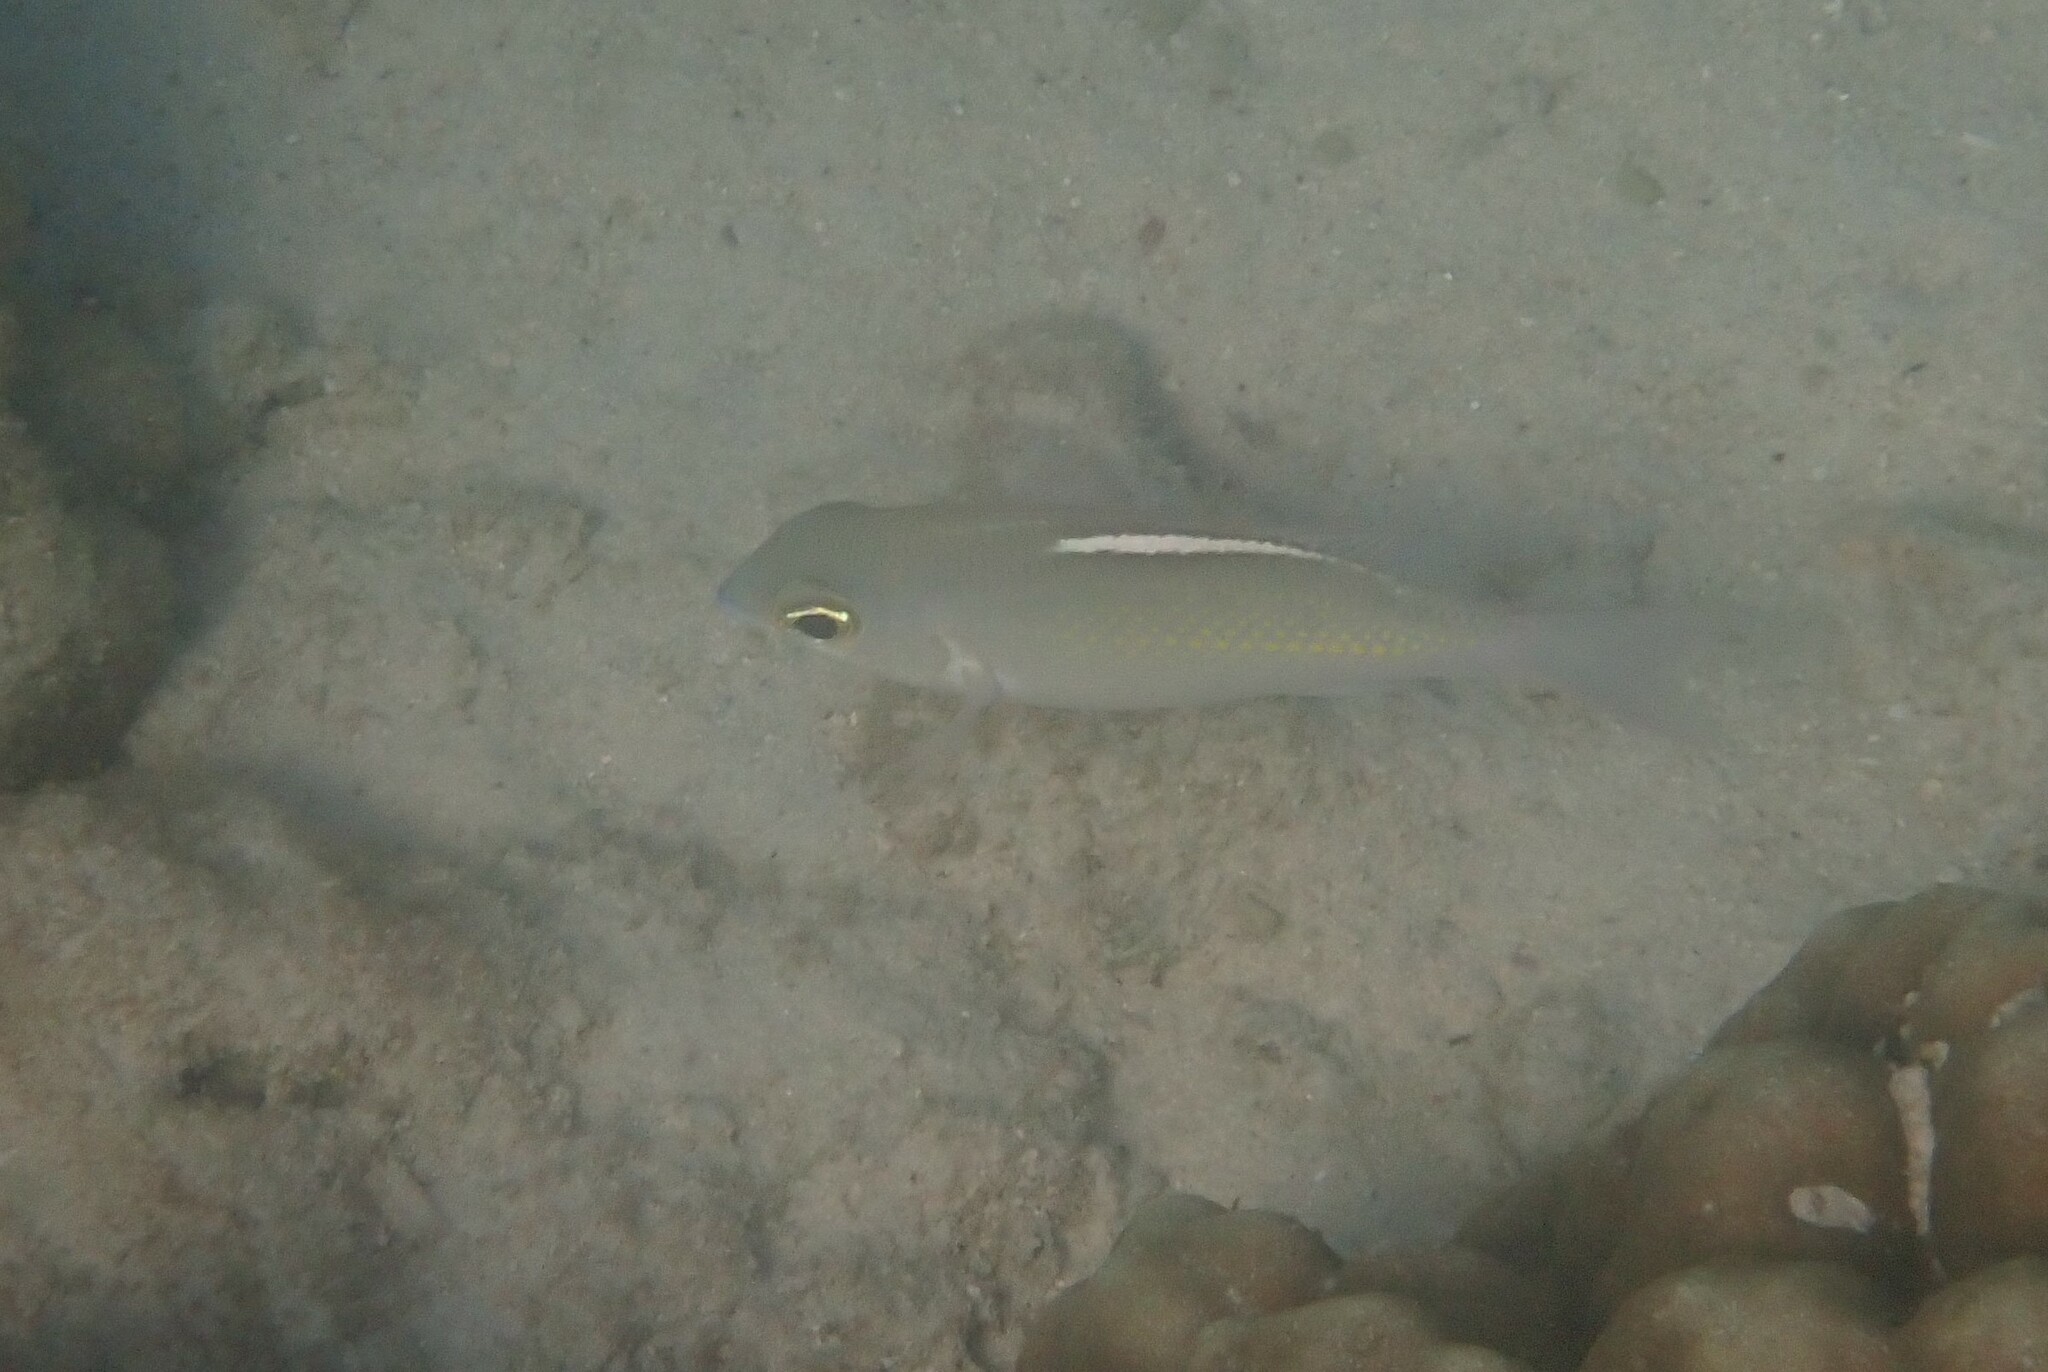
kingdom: Animalia
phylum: Chordata
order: Perciformes
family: Nemipteridae
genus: Scolopsis
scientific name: Scolopsis ciliata
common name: Ciliate spinecheek
